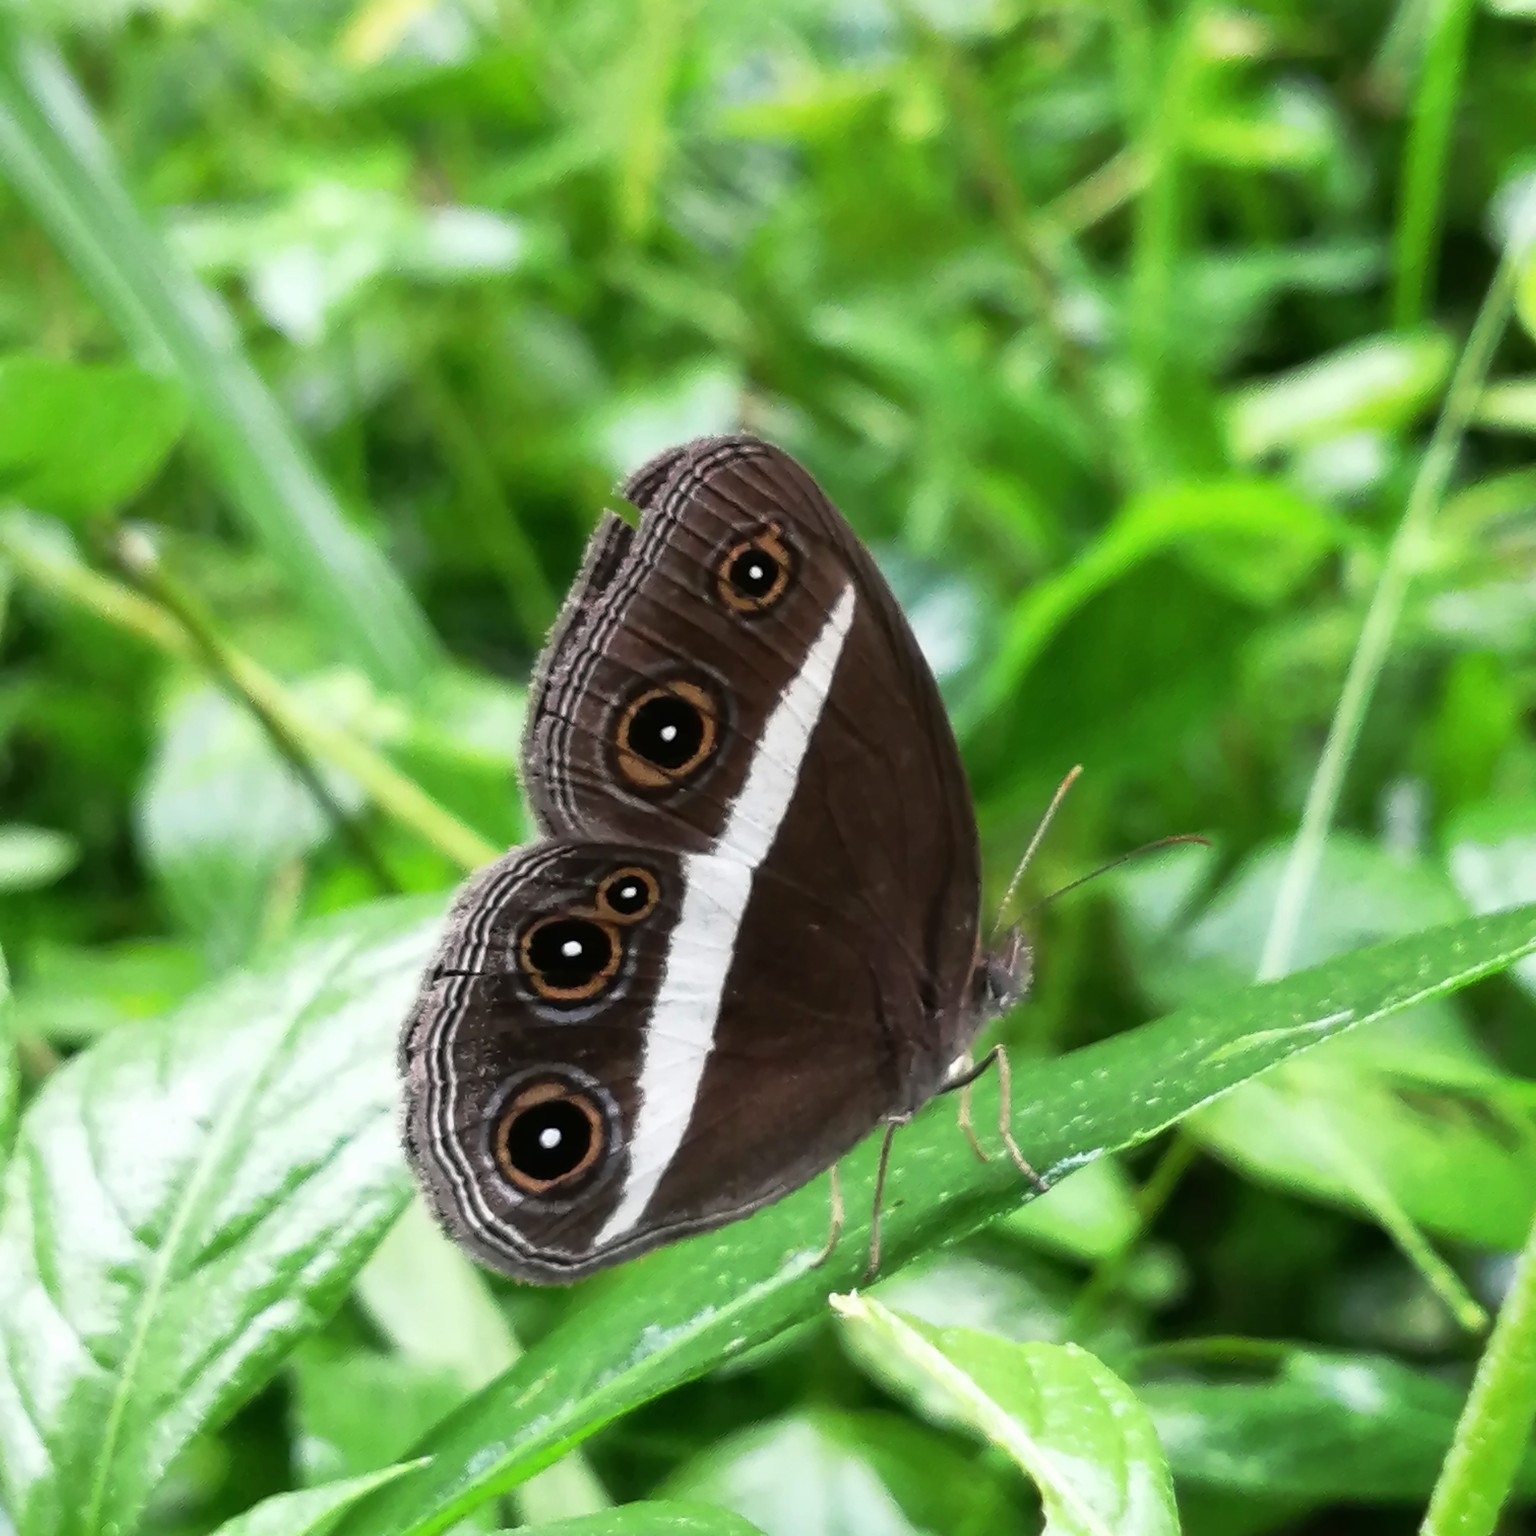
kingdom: Animalia
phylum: Arthropoda
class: Insecta
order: Lepidoptera
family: Nymphalidae
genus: Orsotriaena
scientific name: Orsotriaena medus
